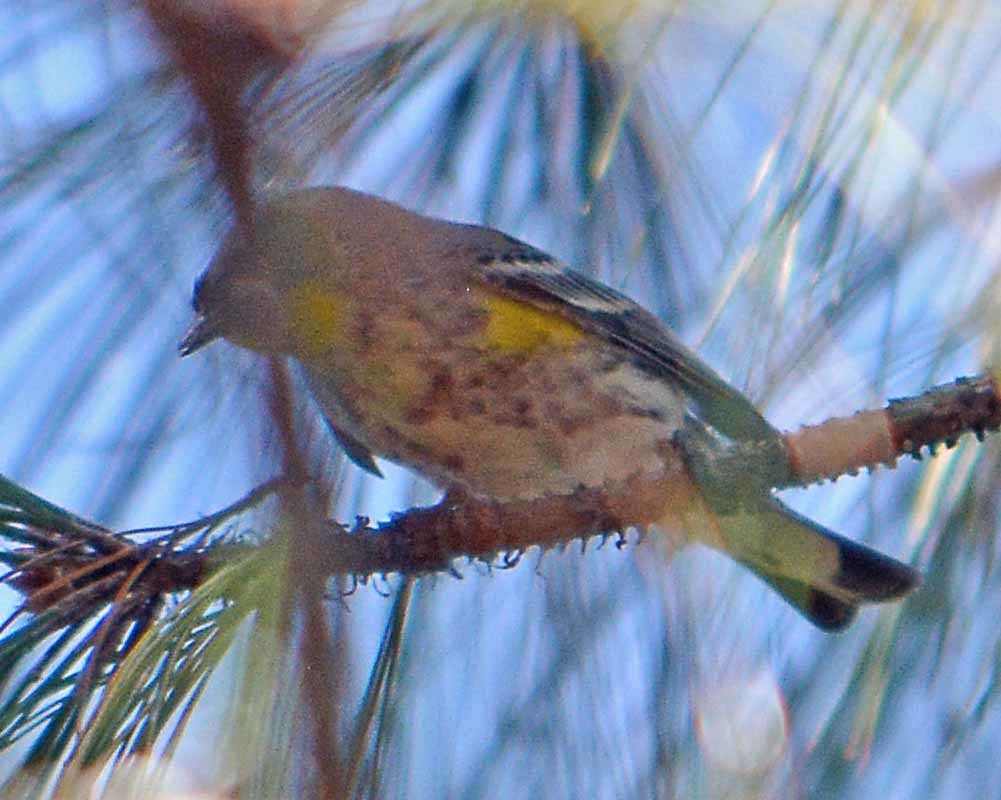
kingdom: Animalia
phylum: Chordata
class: Aves
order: Passeriformes
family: Parulidae
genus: Setophaga
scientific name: Setophaga coronata
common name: Myrtle warbler
